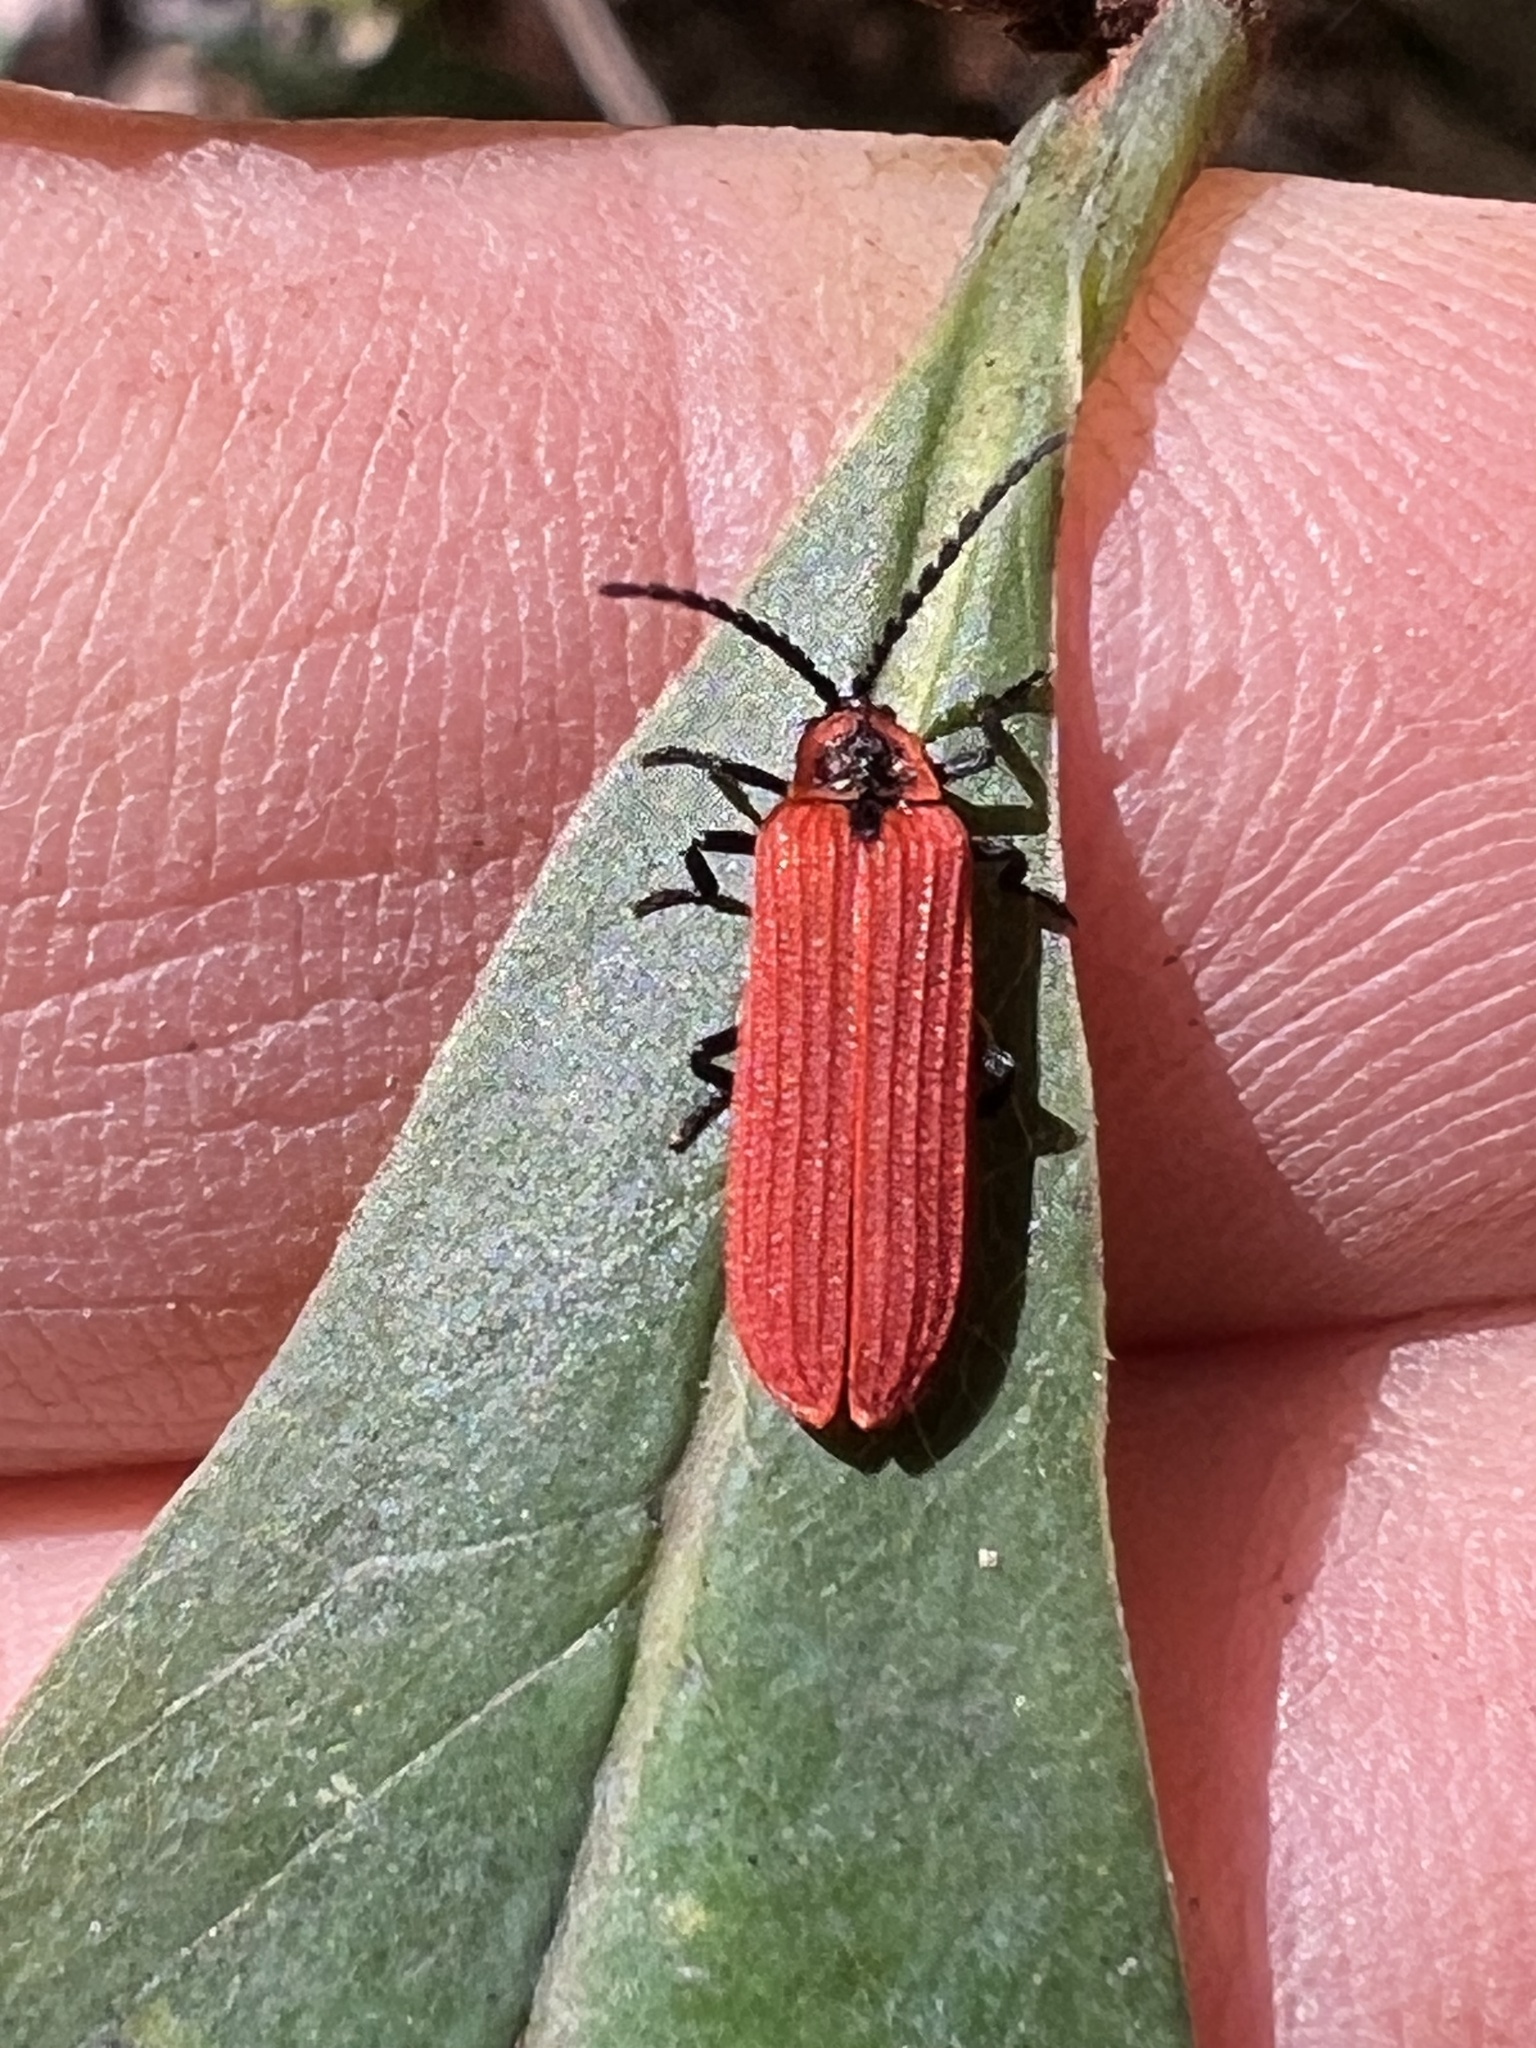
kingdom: Animalia
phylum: Arthropoda
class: Insecta
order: Coleoptera
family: Lycidae
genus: Dictyoptera
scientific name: Dictyoptera aurora
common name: Golden net-winged beetle
